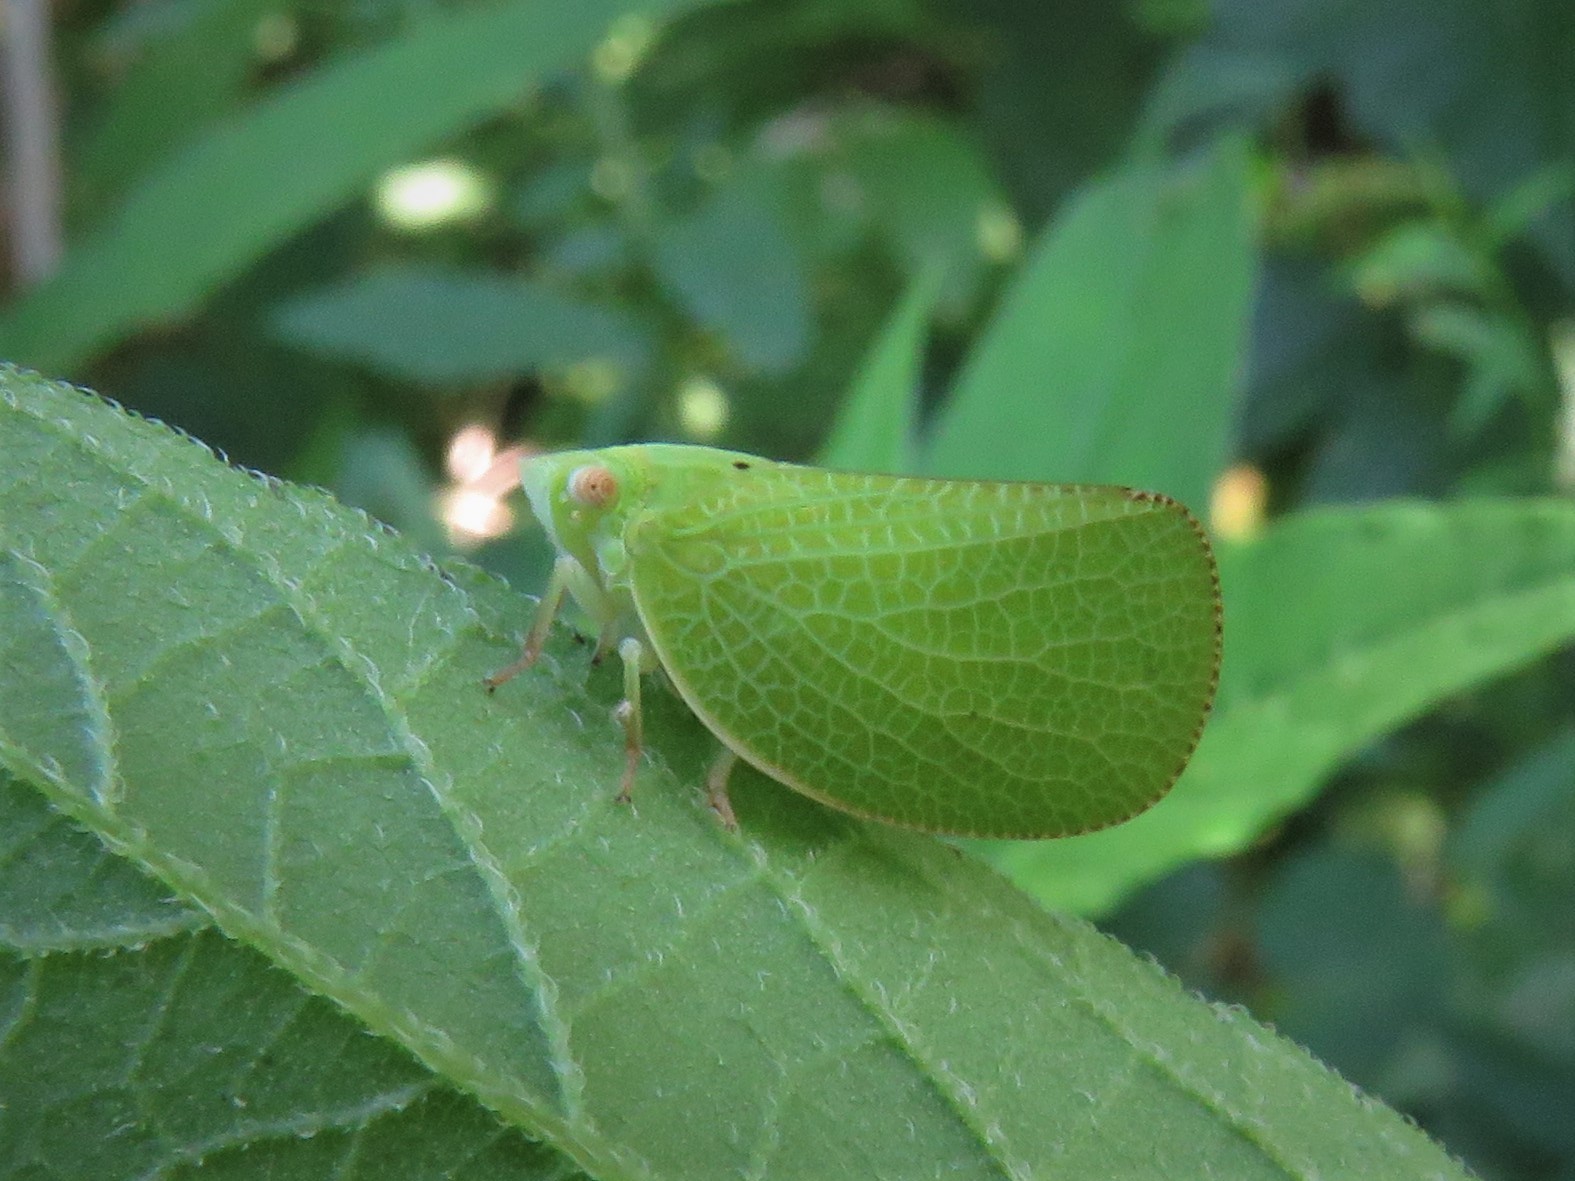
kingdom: Animalia
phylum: Arthropoda
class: Insecta
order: Hemiptera
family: Acanaloniidae
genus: Acanalonia
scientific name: Acanalonia conica
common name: Green cone-headed planthopper
